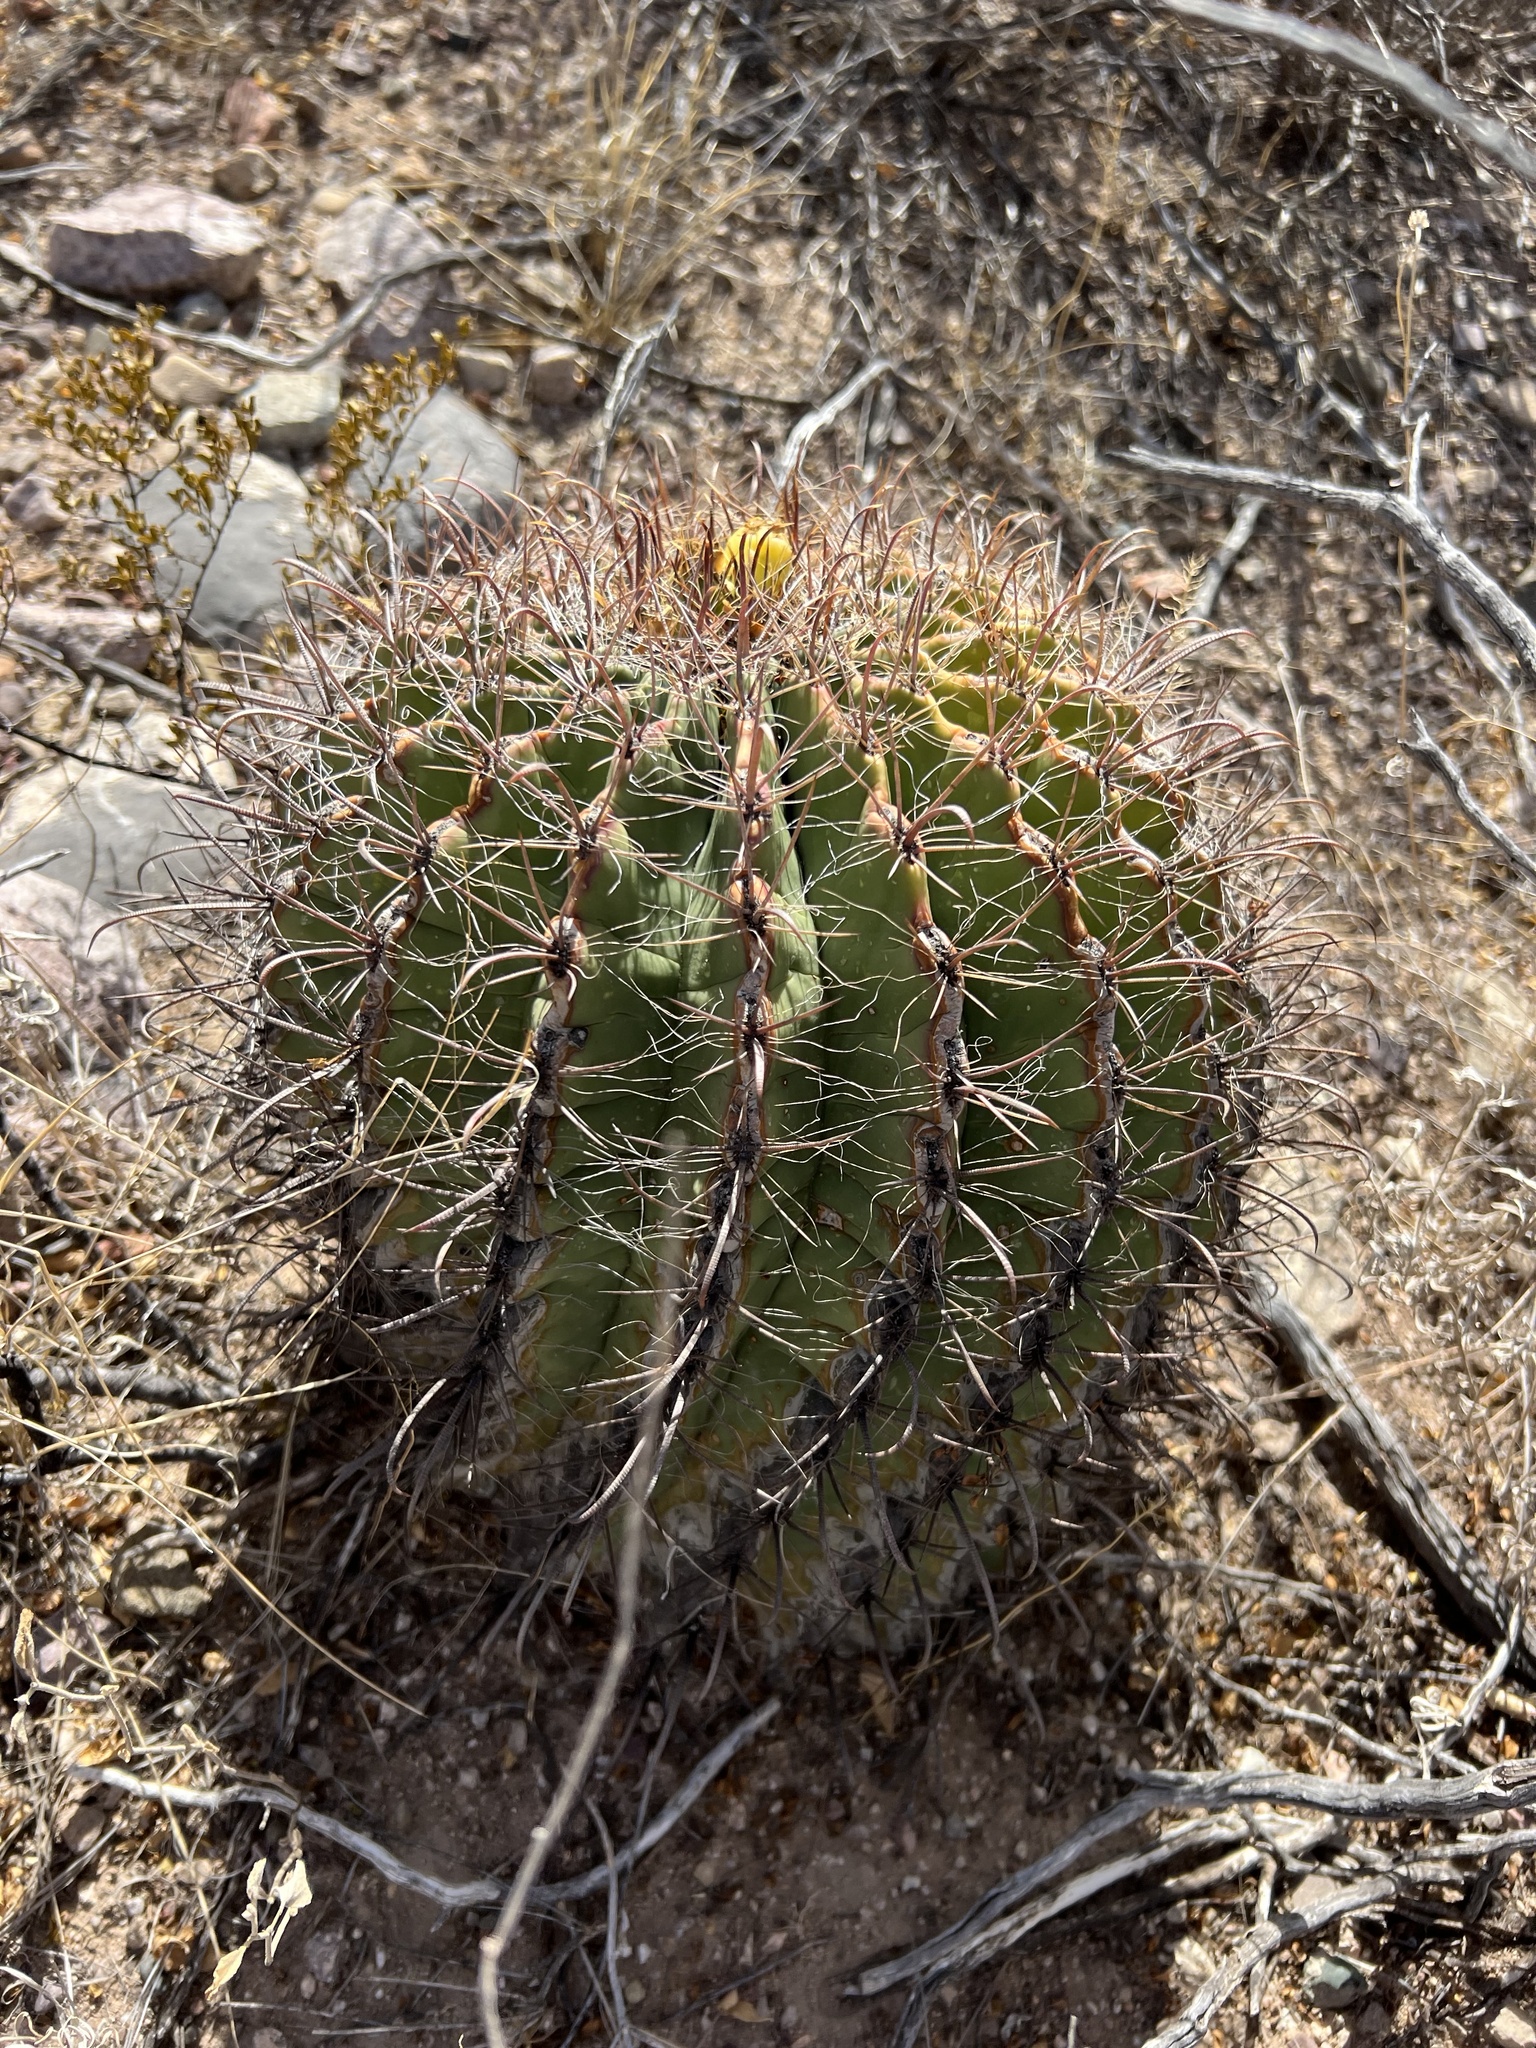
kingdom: Plantae
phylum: Tracheophyta
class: Magnoliopsida
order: Caryophyllales
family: Cactaceae
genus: Ferocactus
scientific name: Ferocactus wislizeni
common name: Candy barrel cactus
